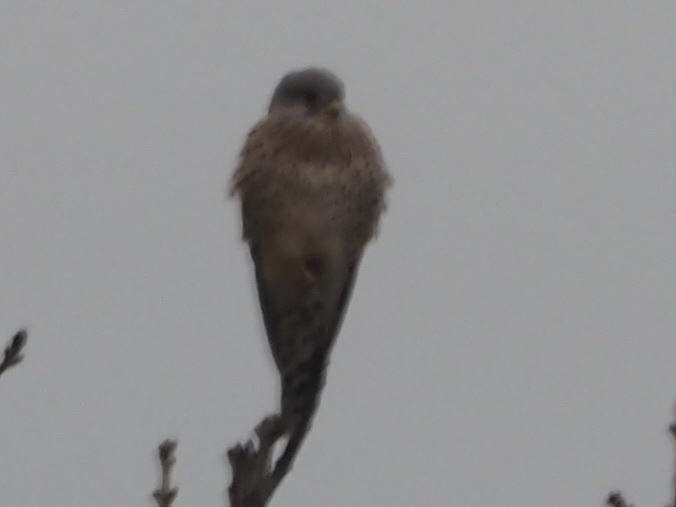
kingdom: Animalia
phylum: Chordata
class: Aves
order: Falconiformes
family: Falconidae
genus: Falco
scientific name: Falco tinnunculus
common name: Common kestrel
